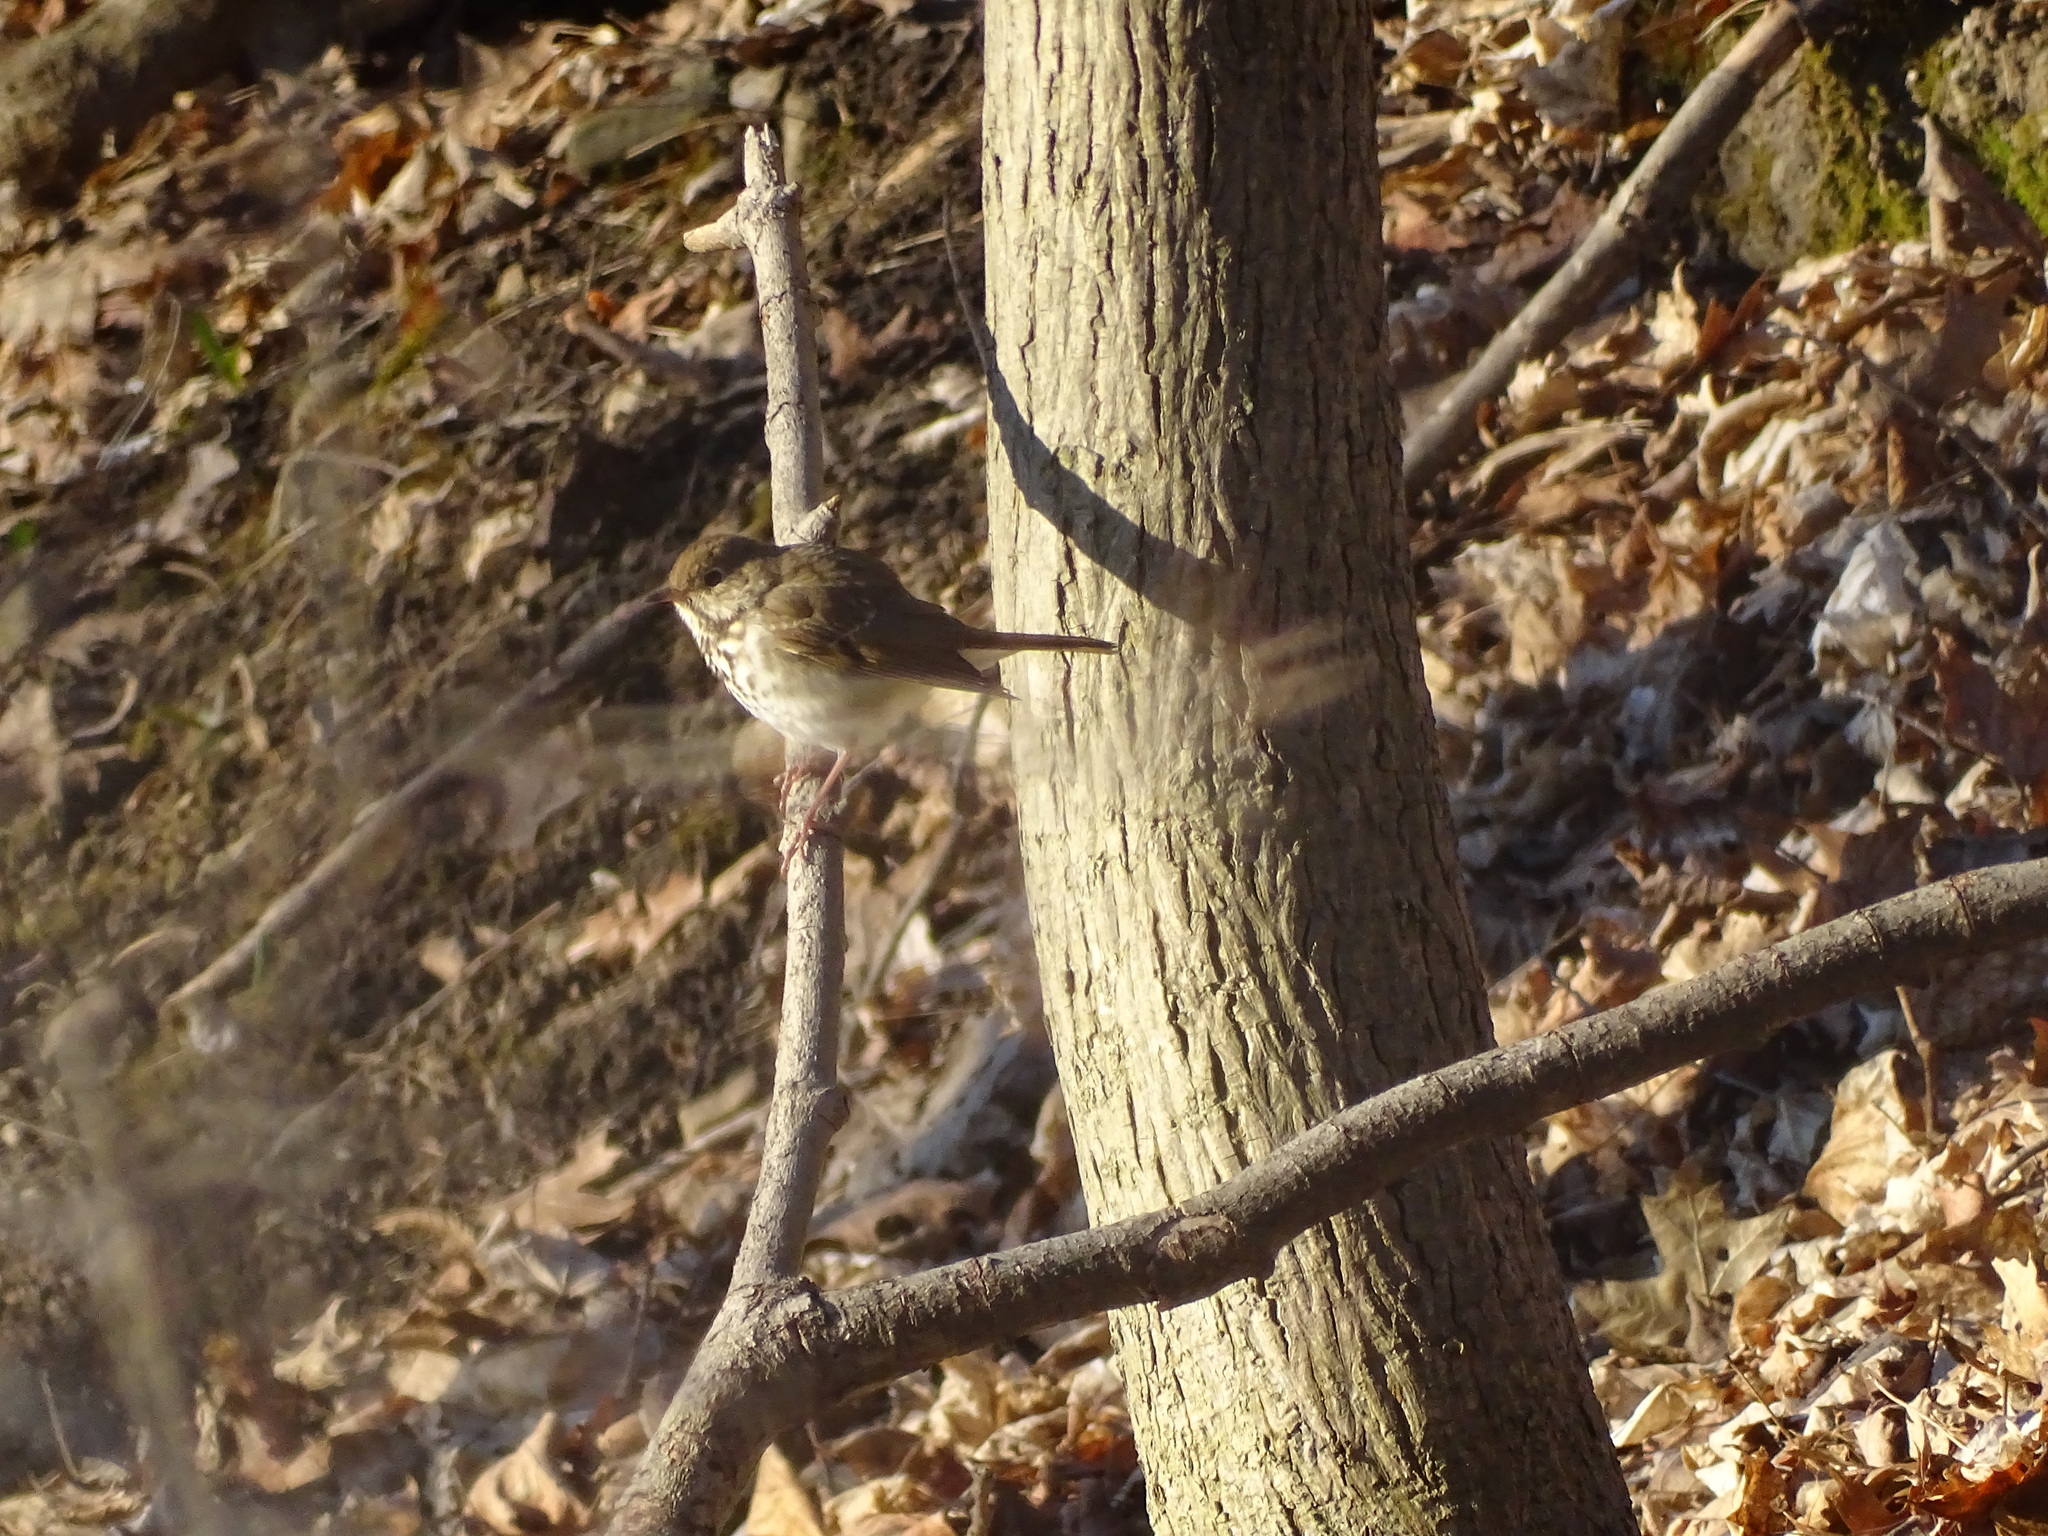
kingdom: Animalia
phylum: Chordata
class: Aves
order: Passeriformes
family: Turdidae
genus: Catharus
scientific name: Catharus guttatus
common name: Hermit thrush
